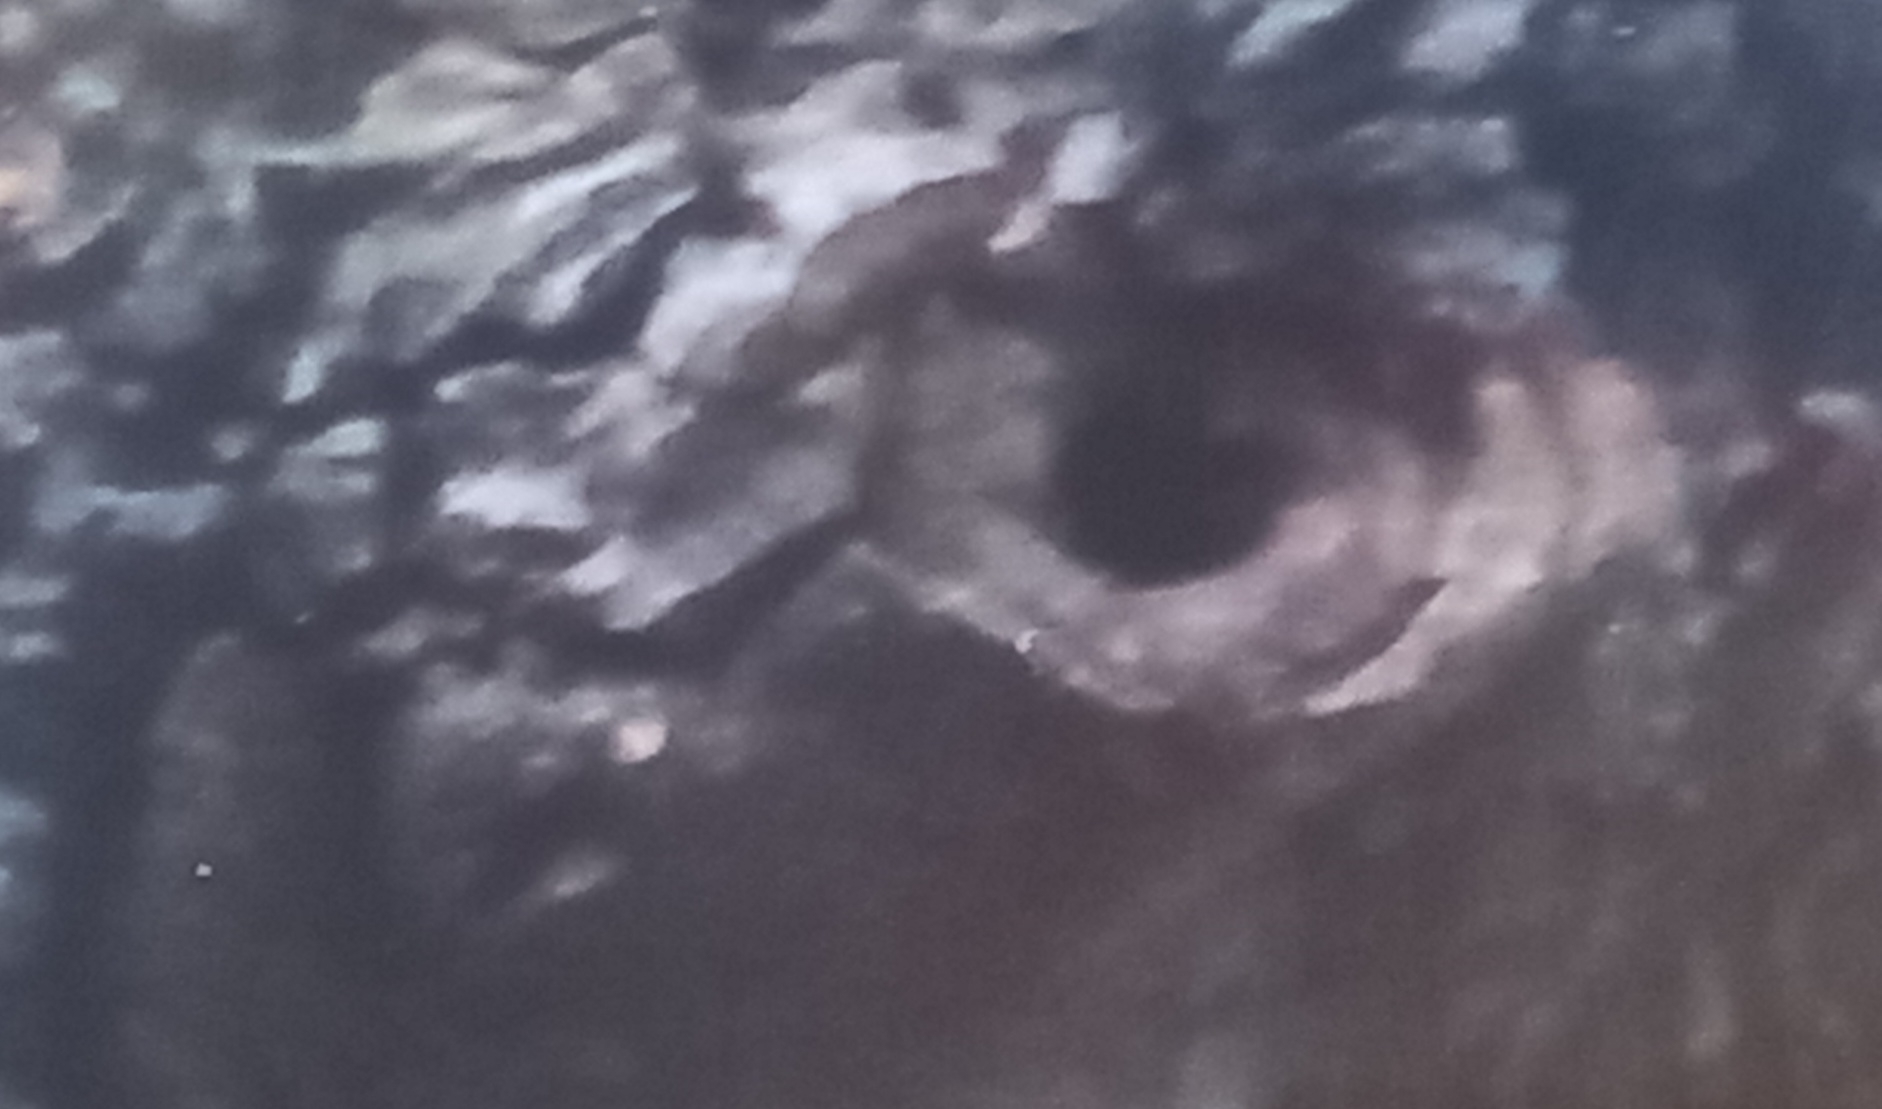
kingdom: Animalia
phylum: Chordata
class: Aves
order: Passeriformes
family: Sittidae
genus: Sitta
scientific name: Sitta europaea
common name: Eurasian nuthatch
